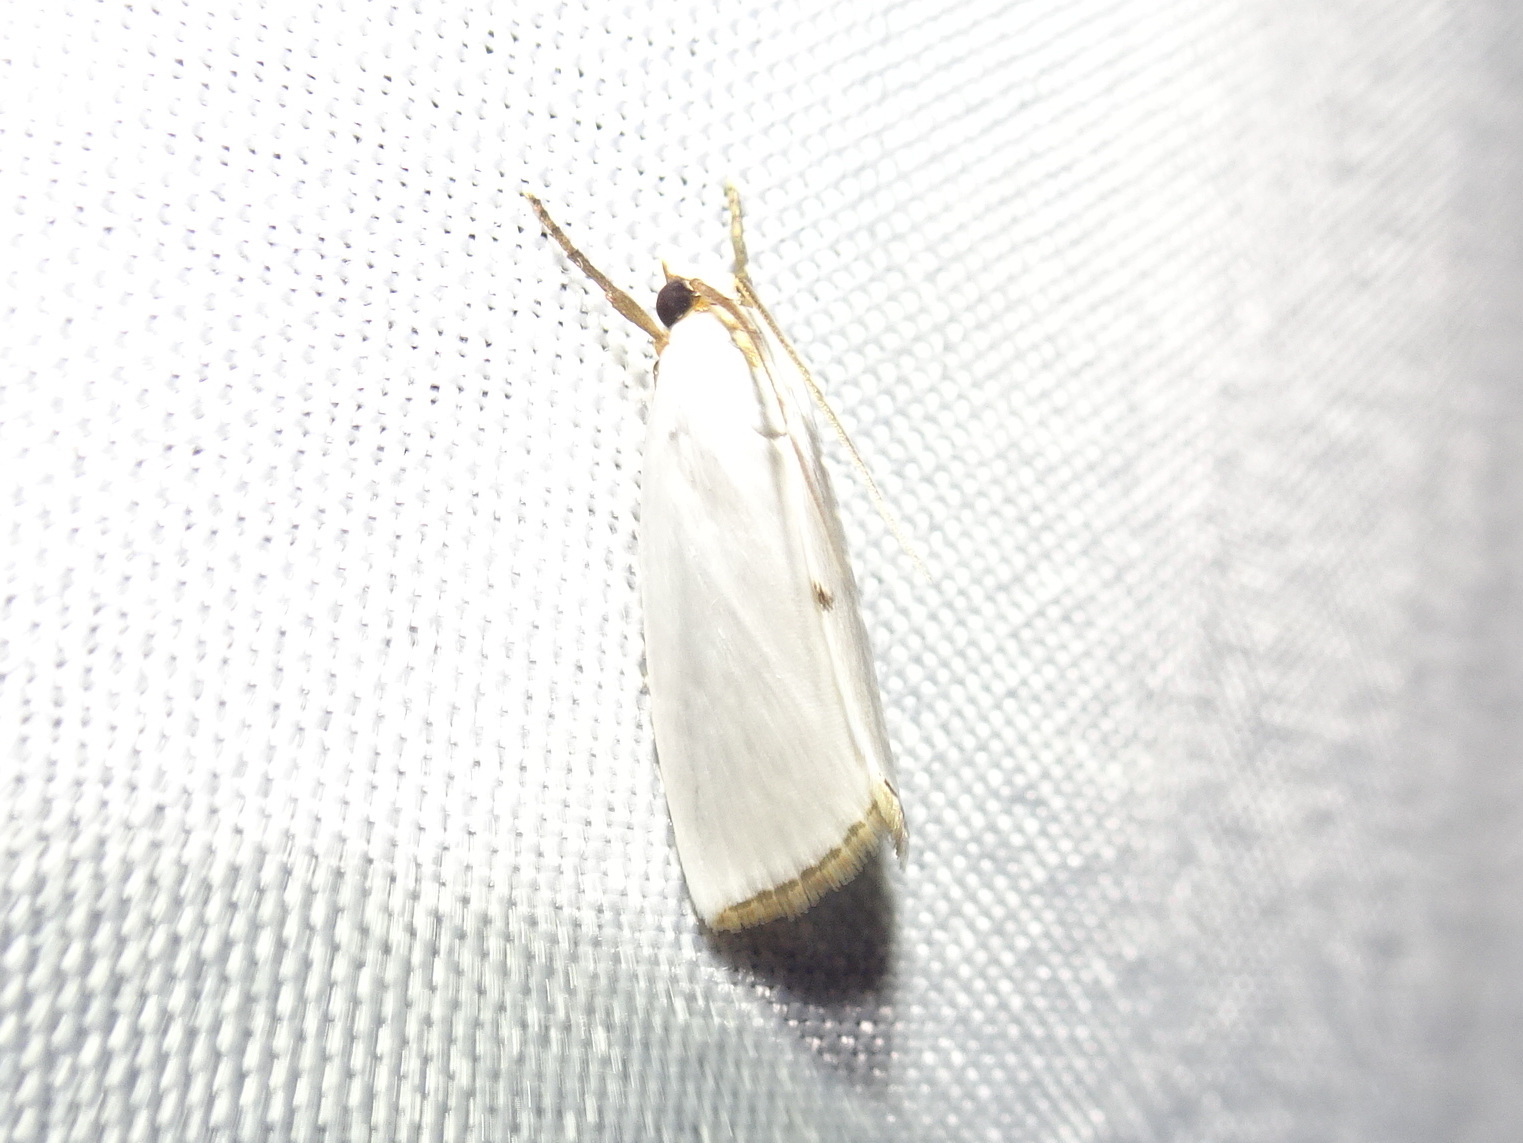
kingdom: Animalia
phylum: Arthropoda
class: Insecta
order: Lepidoptera
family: Crambidae
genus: Argyria
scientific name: Argyria nivalis
